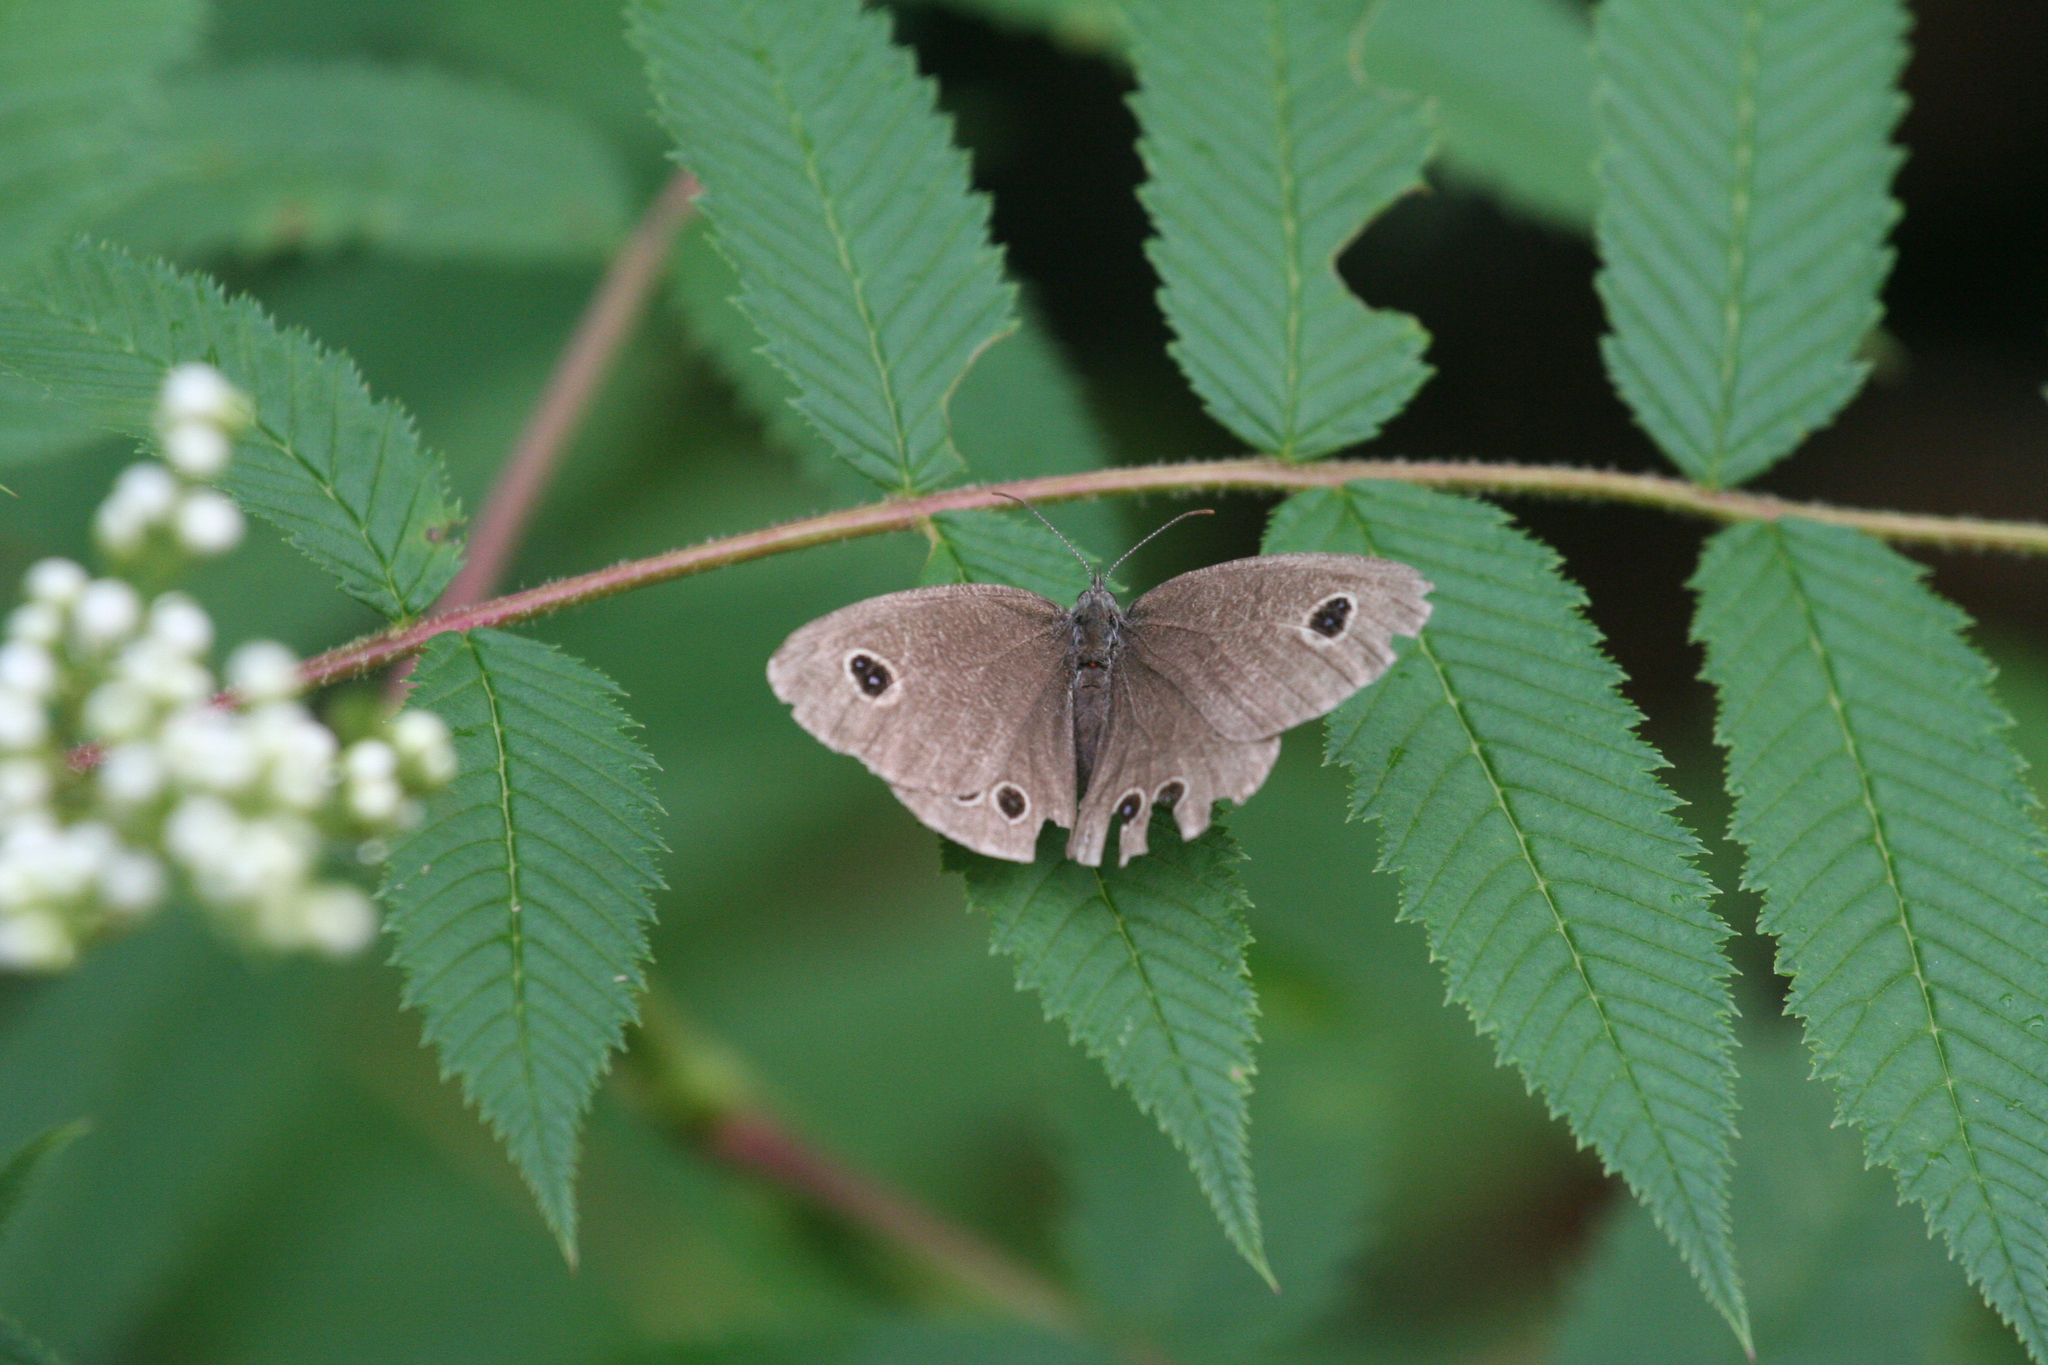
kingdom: Animalia
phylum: Arthropoda
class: Insecta
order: Lepidoptera
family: Nymphalidae
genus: Ypthima
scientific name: Ypthima argus
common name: Common fivering
